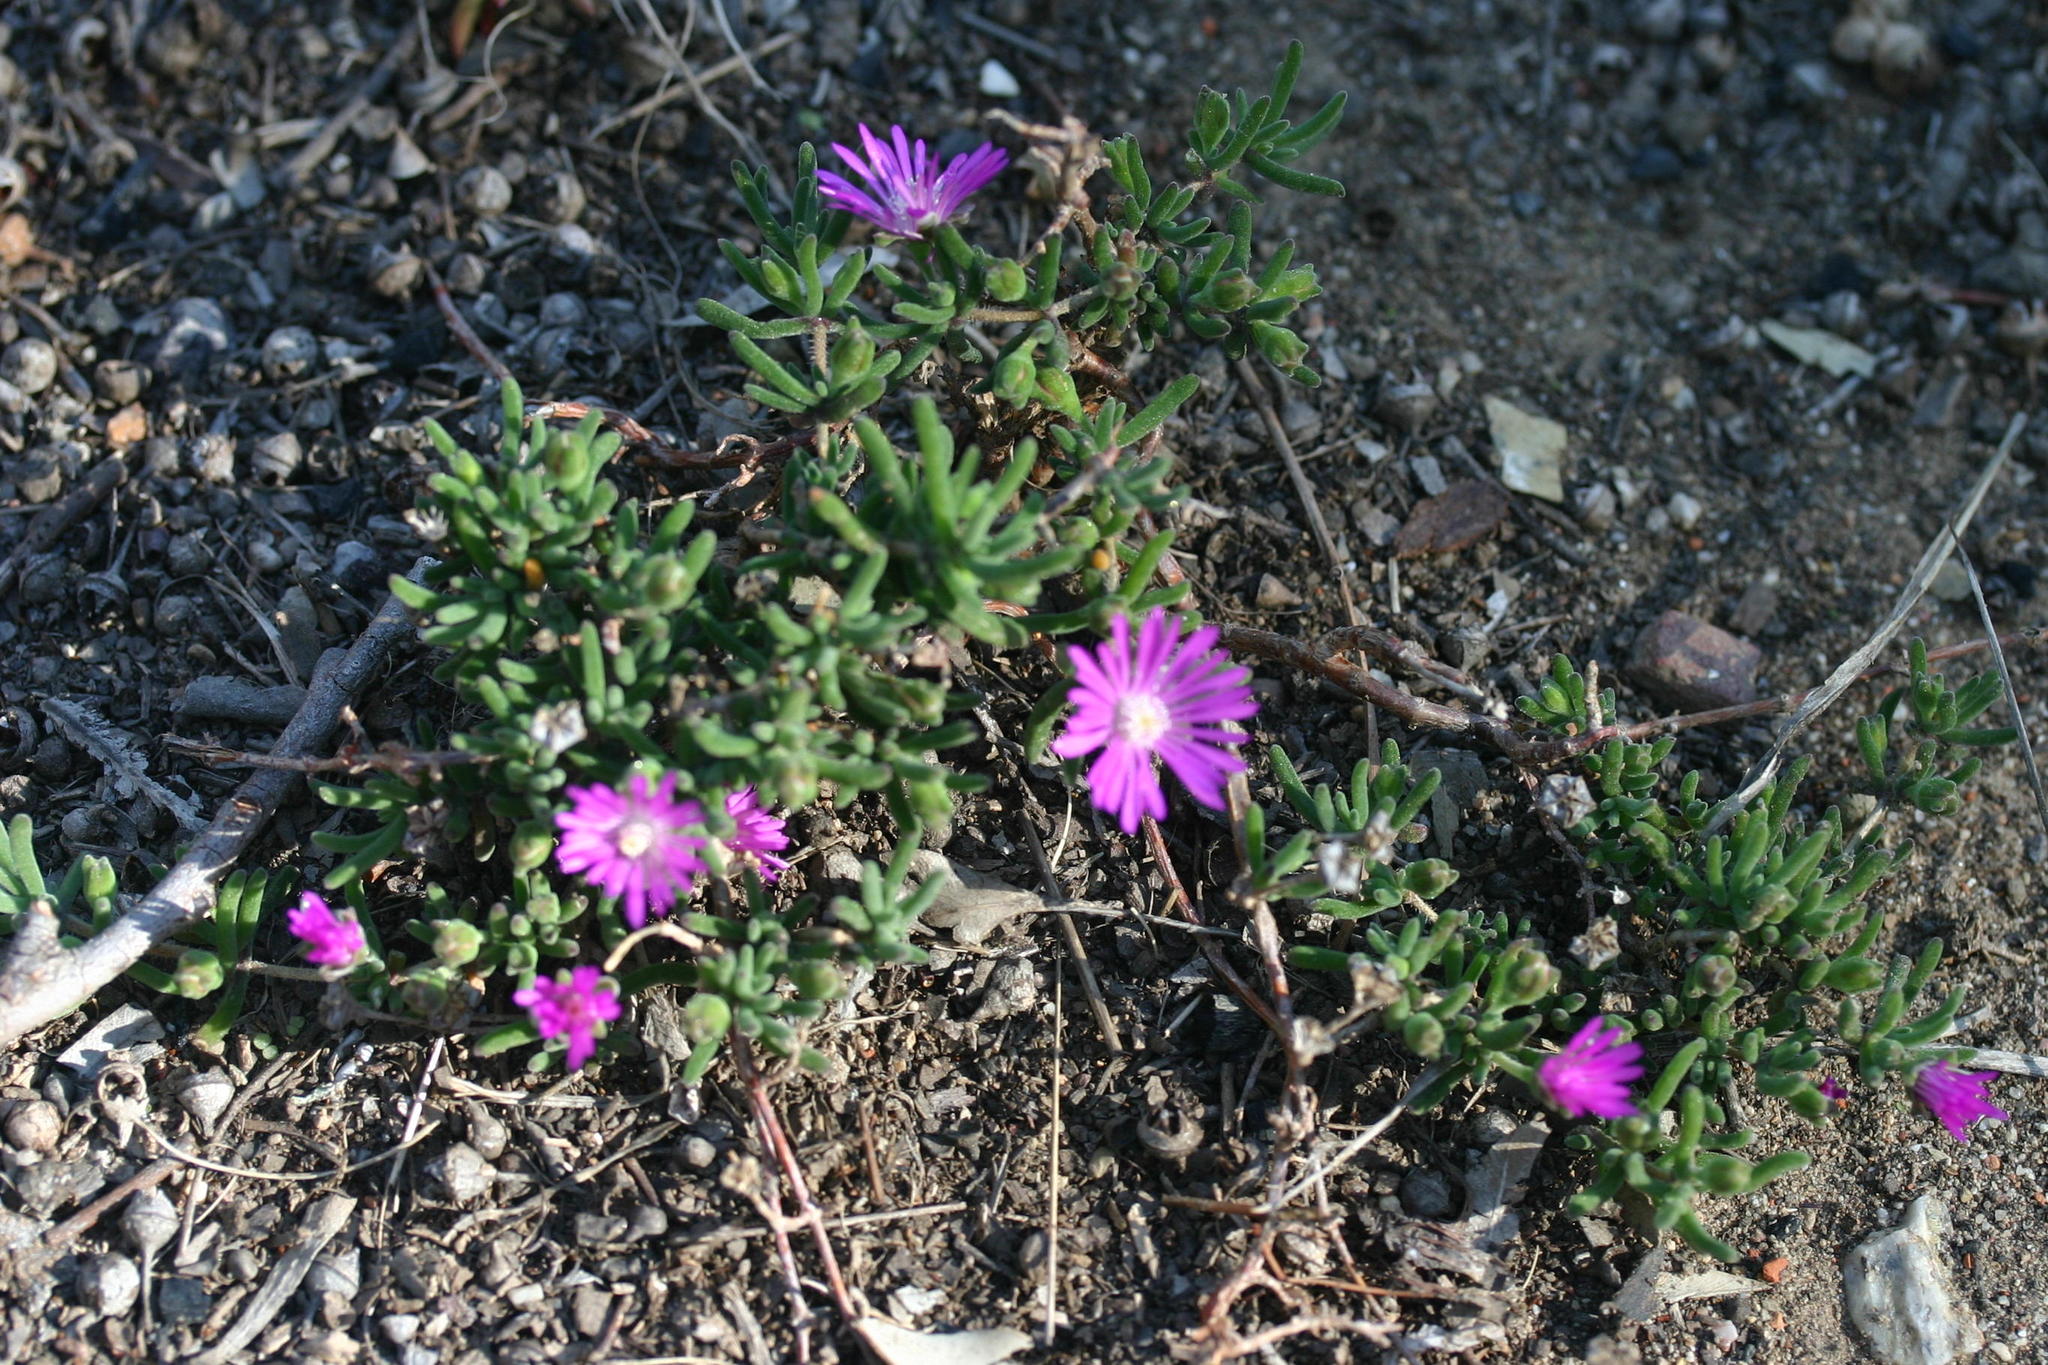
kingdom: Plantae
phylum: Tracheophyta
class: Magnoliopsida
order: Caryophyllales
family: Aizoaceae
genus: Drosanthemum
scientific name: Drosanthemum hispidum
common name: Hairy dewflower
